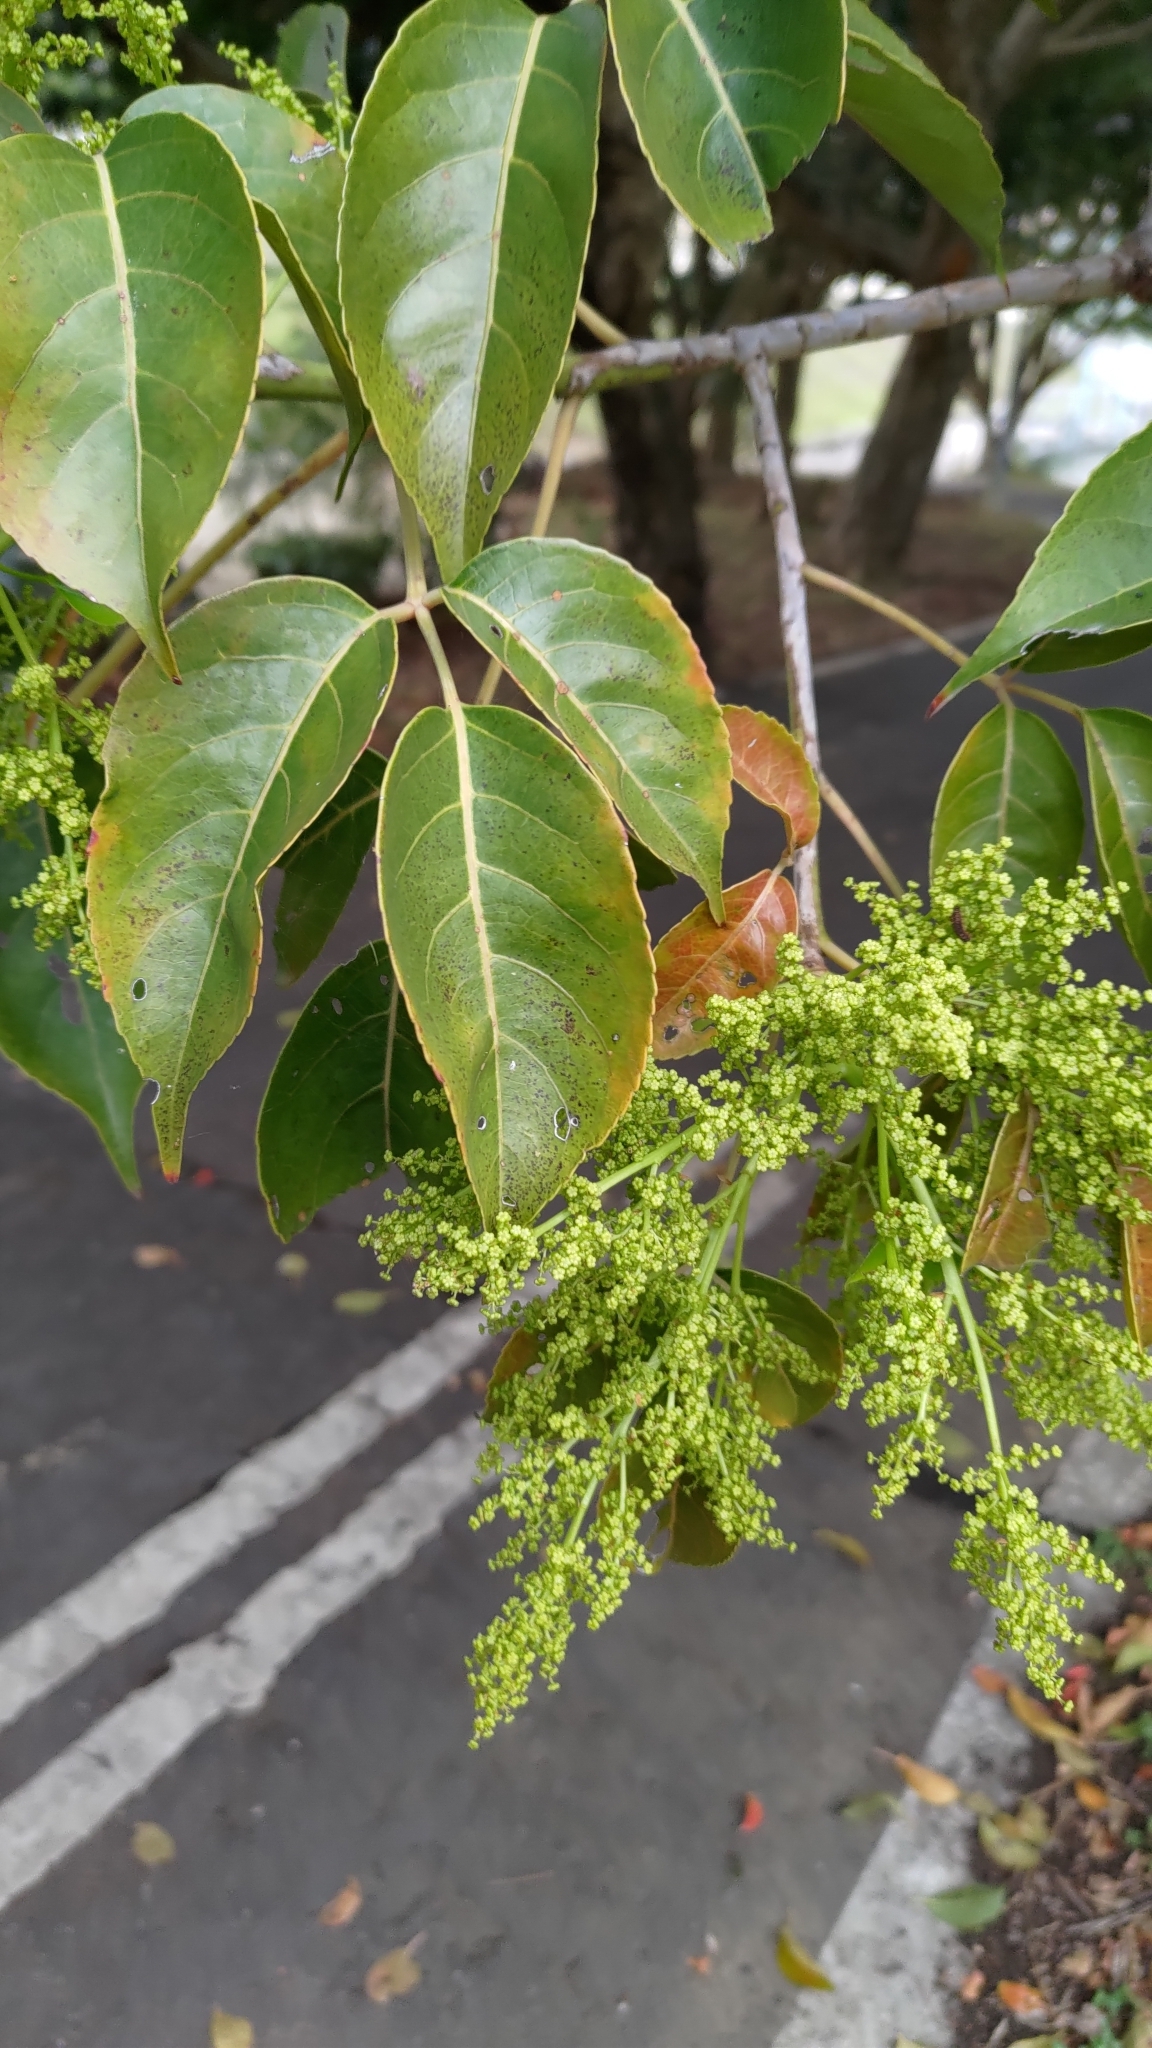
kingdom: Plantae
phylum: Tracheophyta
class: Magnoliopsida
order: Malpighiales
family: Phyllanthaceae
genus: Bischofia
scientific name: Bischofia javanica
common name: Javanese bishopwood
